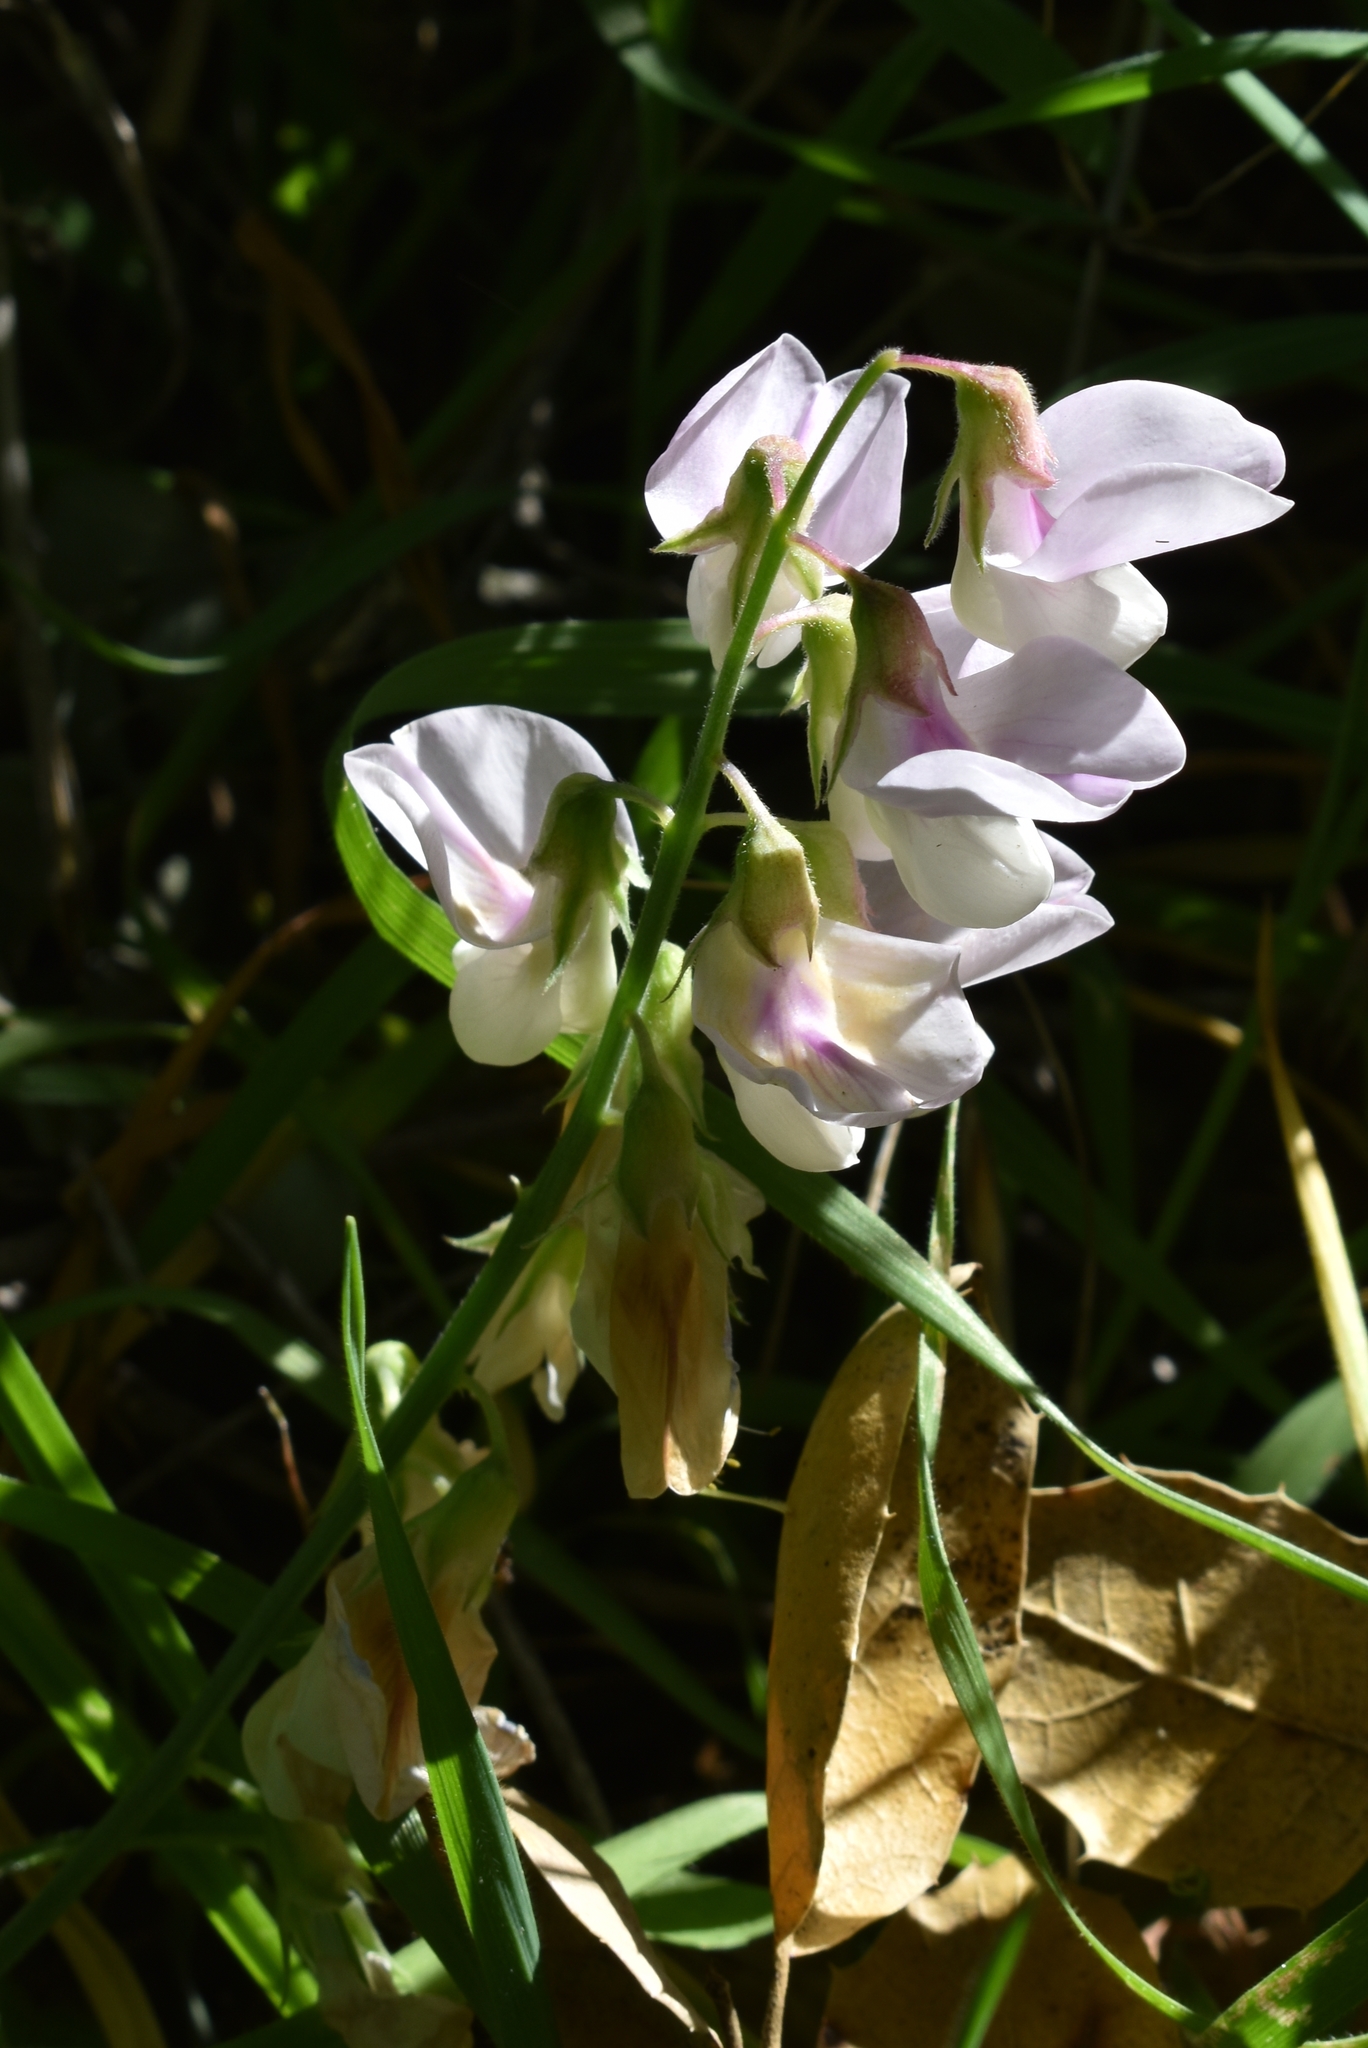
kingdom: Plantae
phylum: Tracheophyta
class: Magnoliopsida
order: Fabales
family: Fabaceae
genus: Lathyrus
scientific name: Lathyrus vestitus
